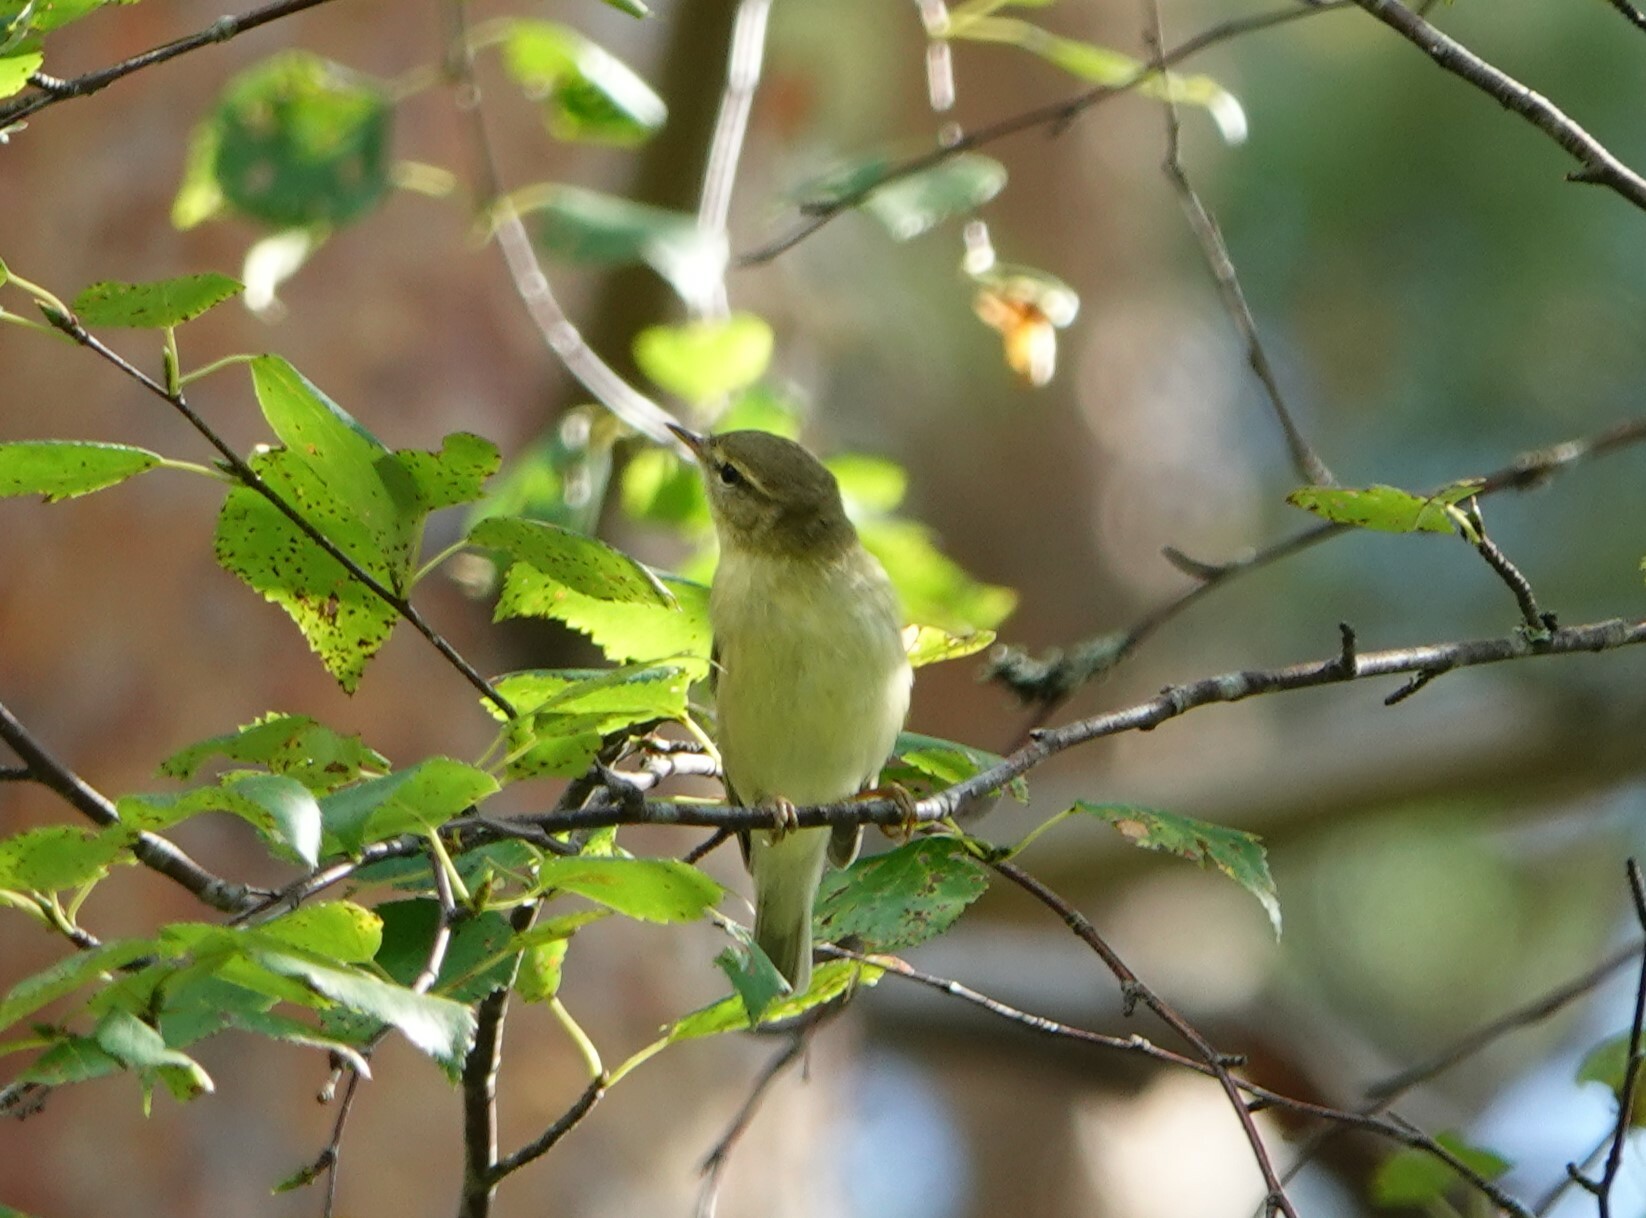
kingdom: Animalia
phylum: Chordata
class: Aves
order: Passeriformes
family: Phylloscopidae
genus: Phylloscopus
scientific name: Phylloscopus trochilus
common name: Willow warbler
